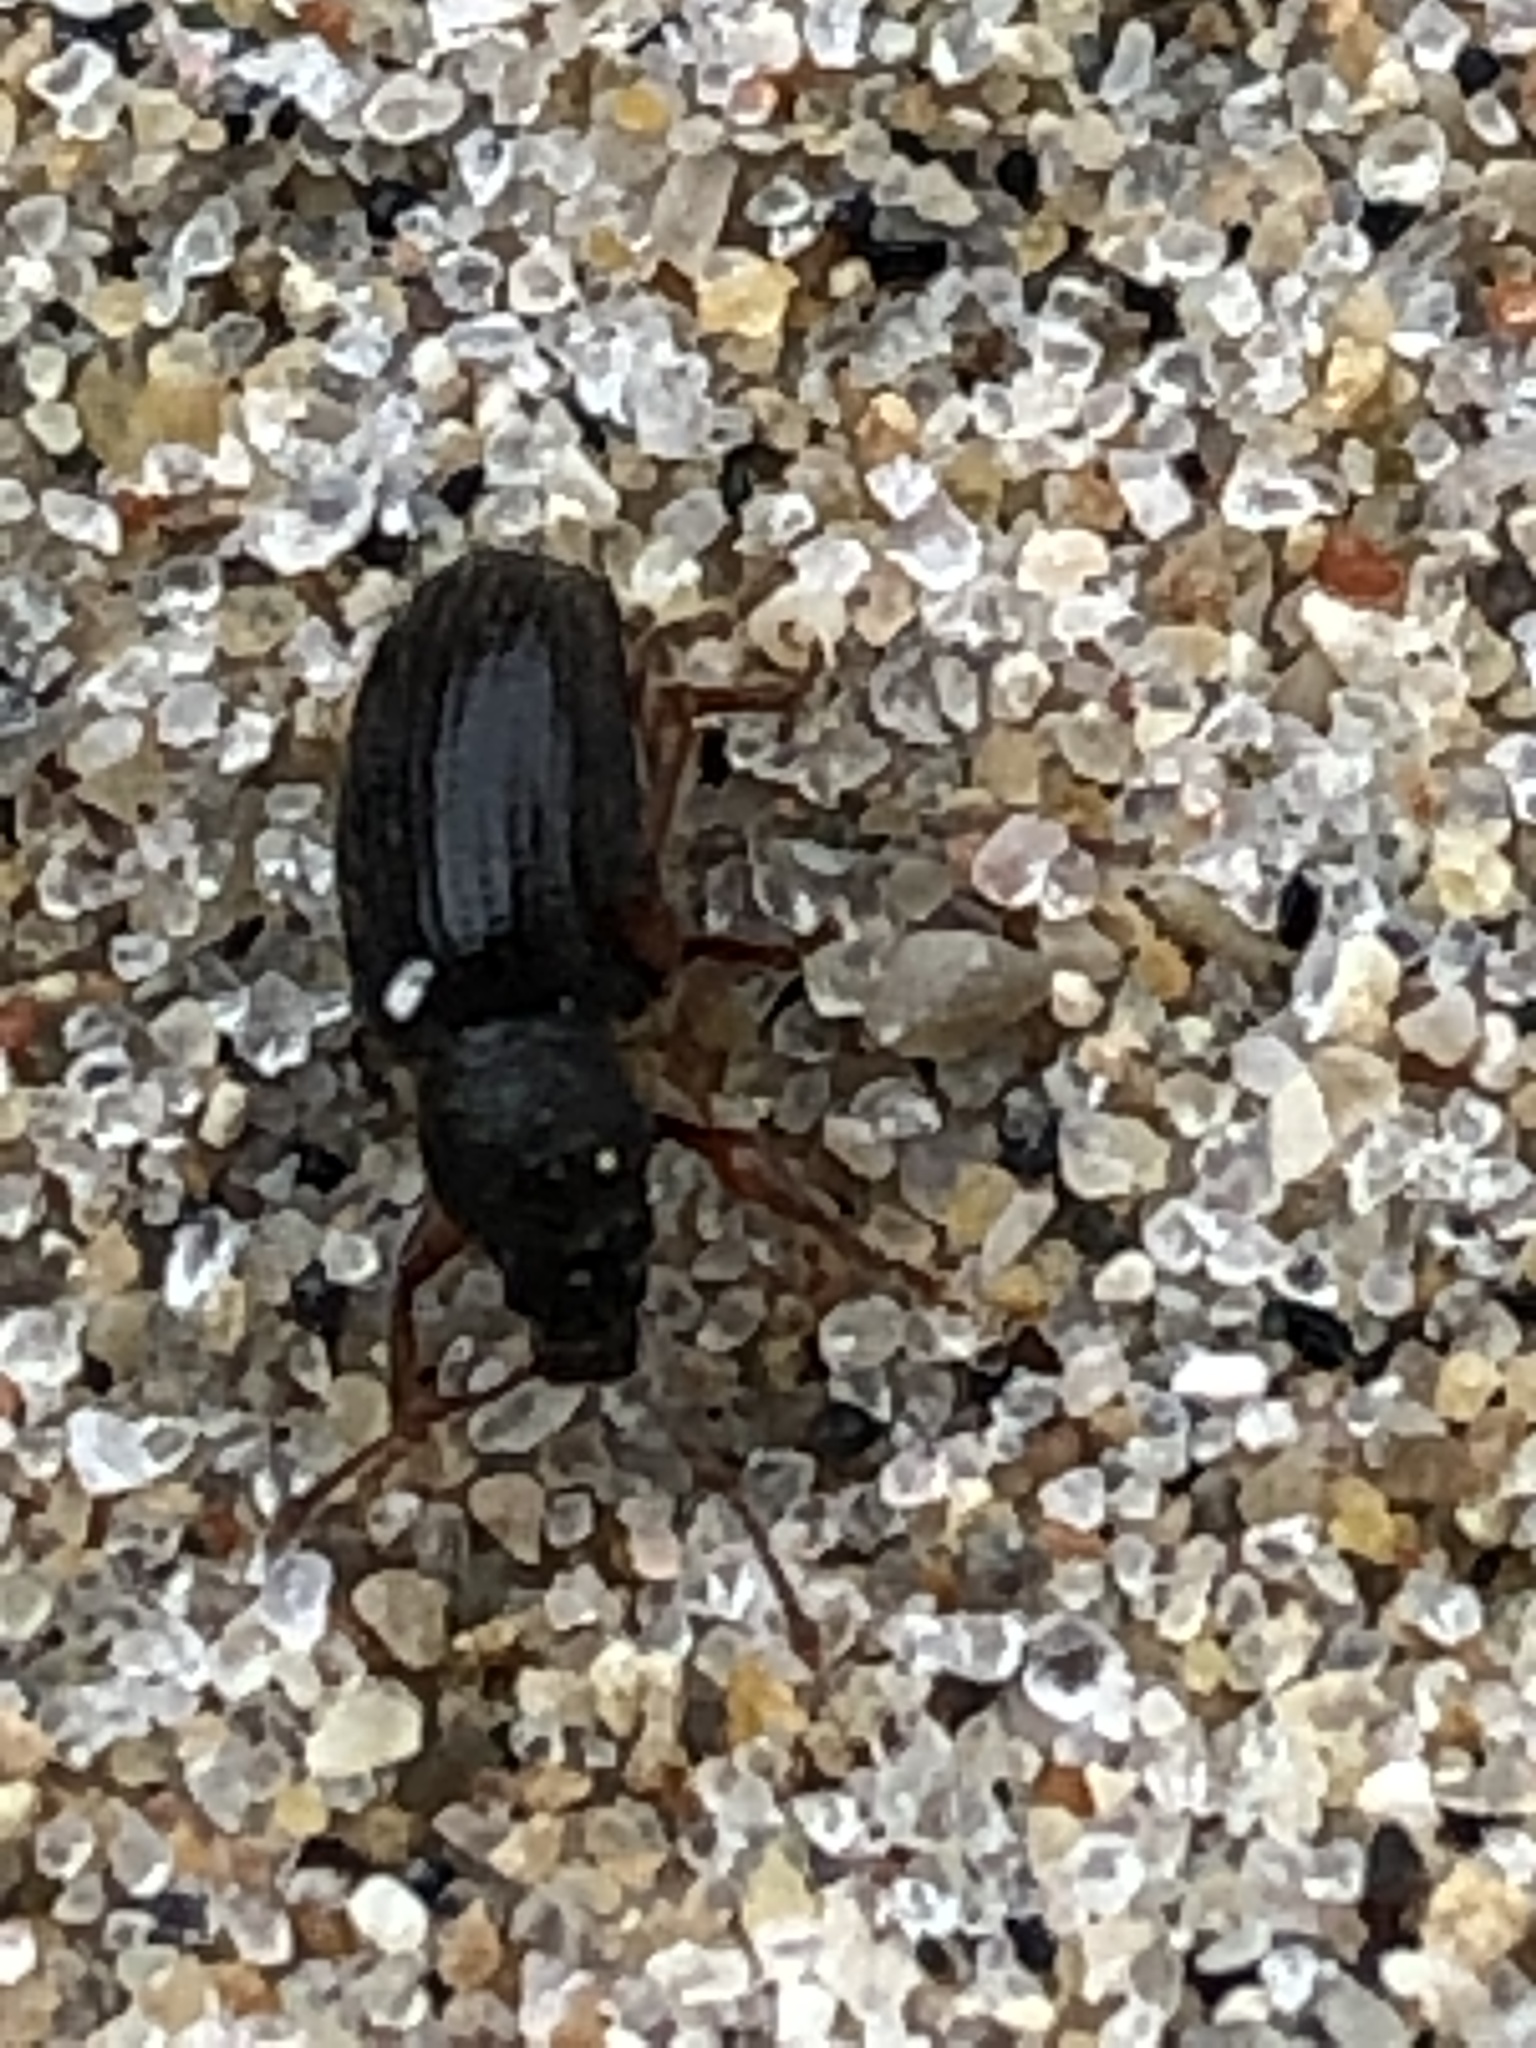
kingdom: Animalia
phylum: Arthropoda
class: Insecta
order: Coleoptera
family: Curculionidae
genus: Exomias
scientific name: Exomias pellucidus
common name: Hairy spider weevil
